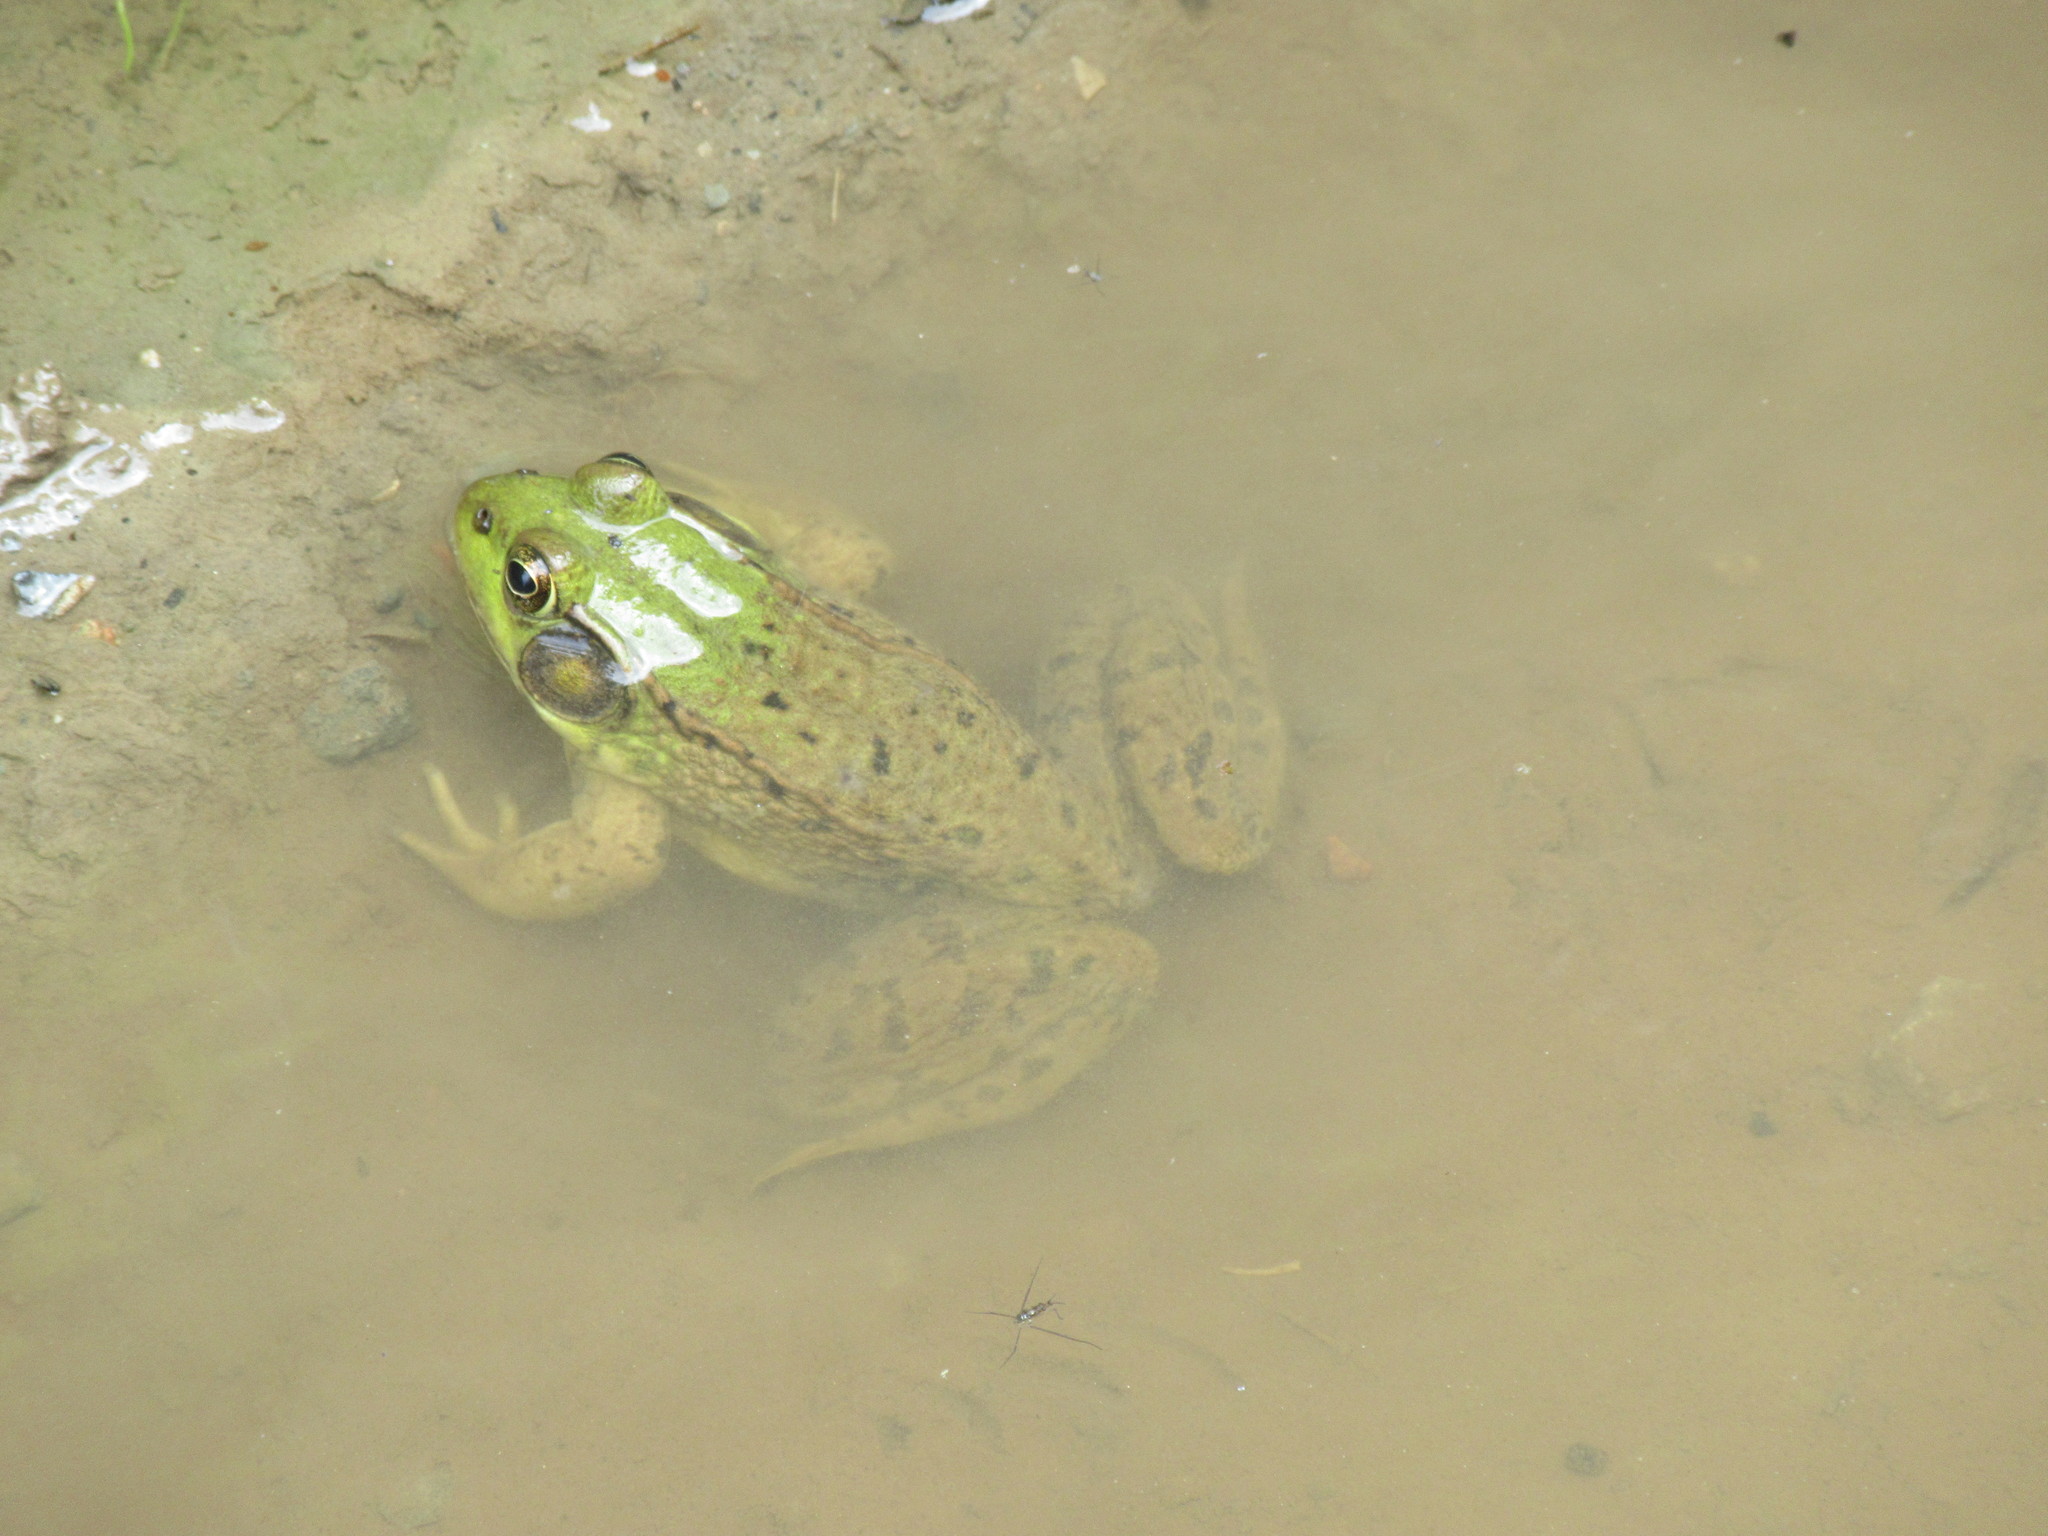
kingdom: Animalia
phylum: Chordata
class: Amphibia
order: Anura
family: Ranidae
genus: Lithobates
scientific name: Lithobates clamitans
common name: Green frog
